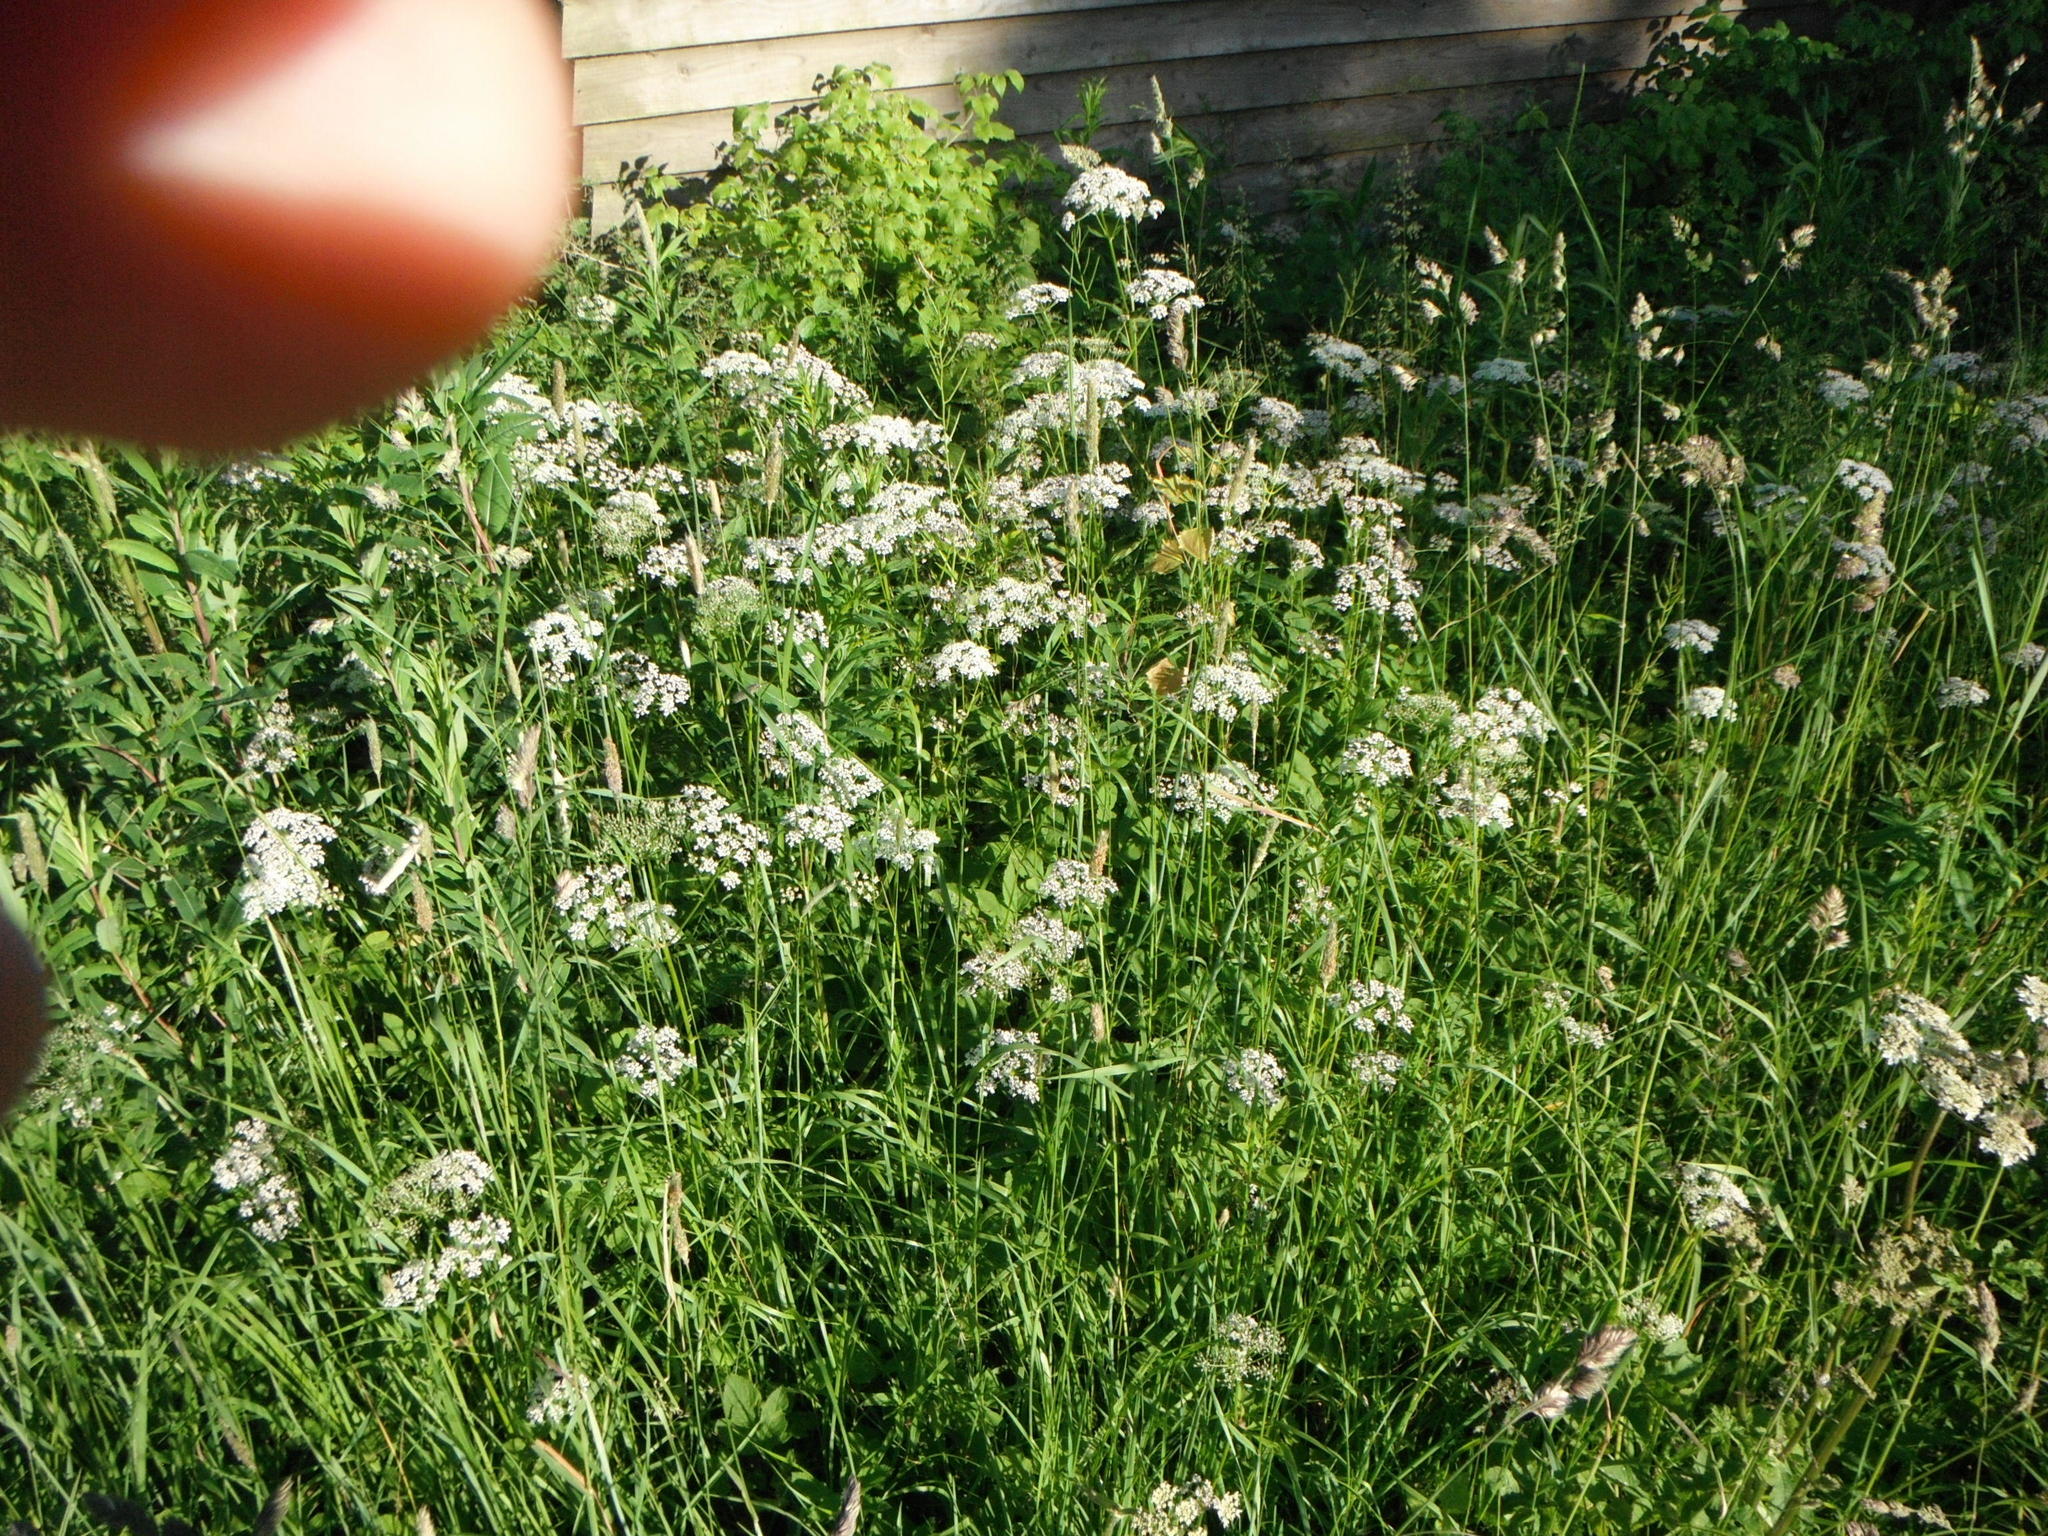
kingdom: Plantae
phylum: Tracheophyta
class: Magnoliopsida
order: Apiales
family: Apiaceae
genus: Aegopodium
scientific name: Aegopodium podagraria
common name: Ground-elder
